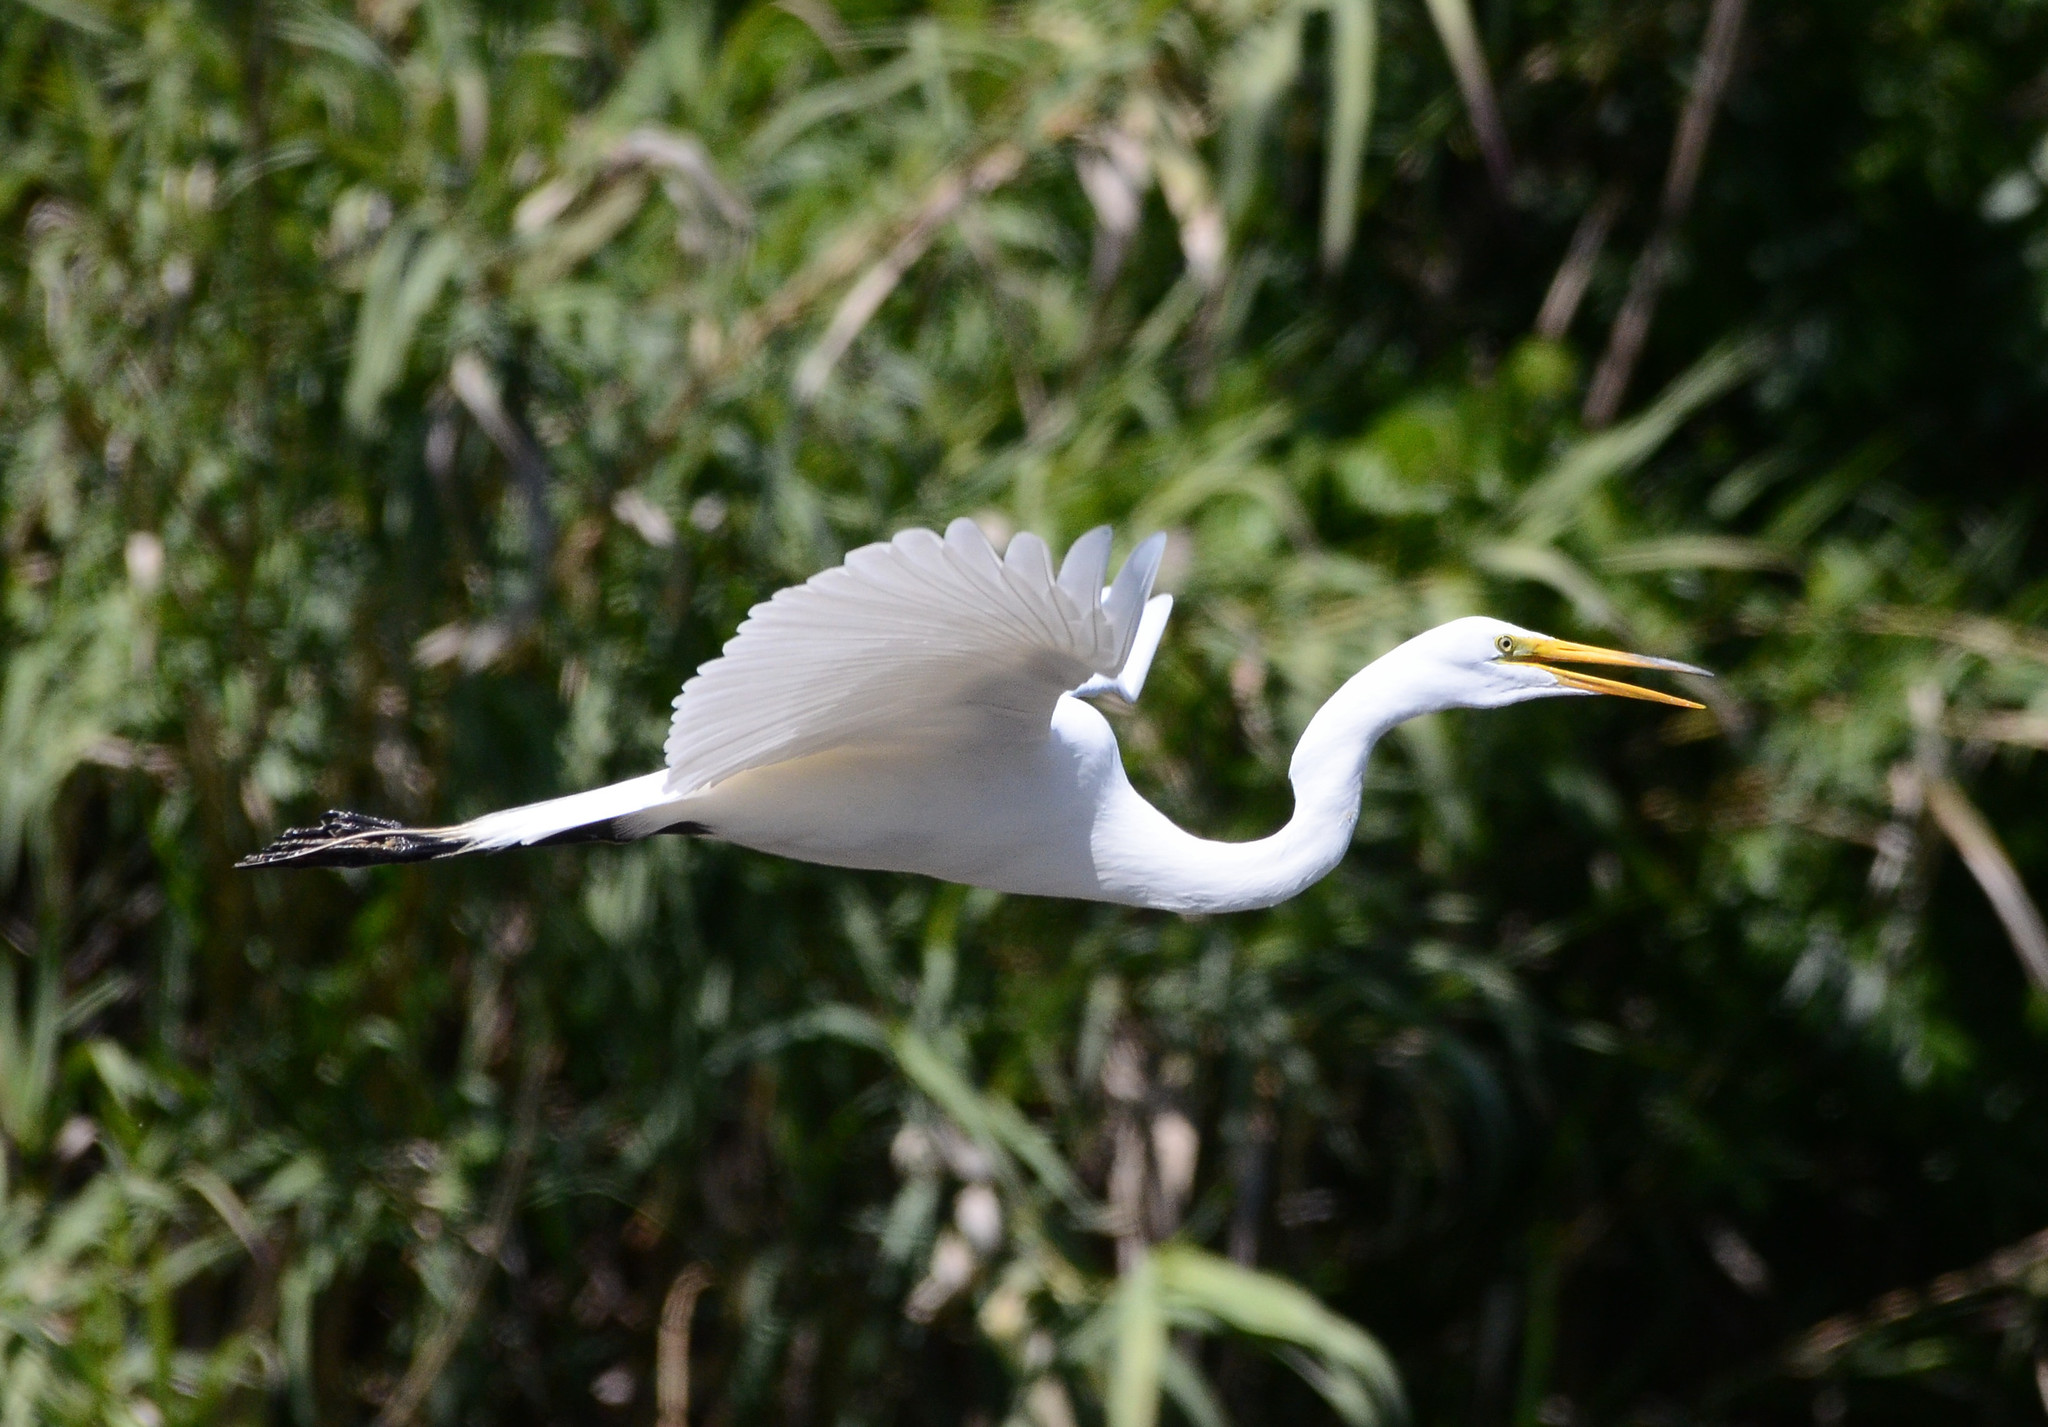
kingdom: Animalia
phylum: Chordata
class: Aves
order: Pelecaniformes
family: Ardeidae
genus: Ardea
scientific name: Ardea alba
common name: Great egret
